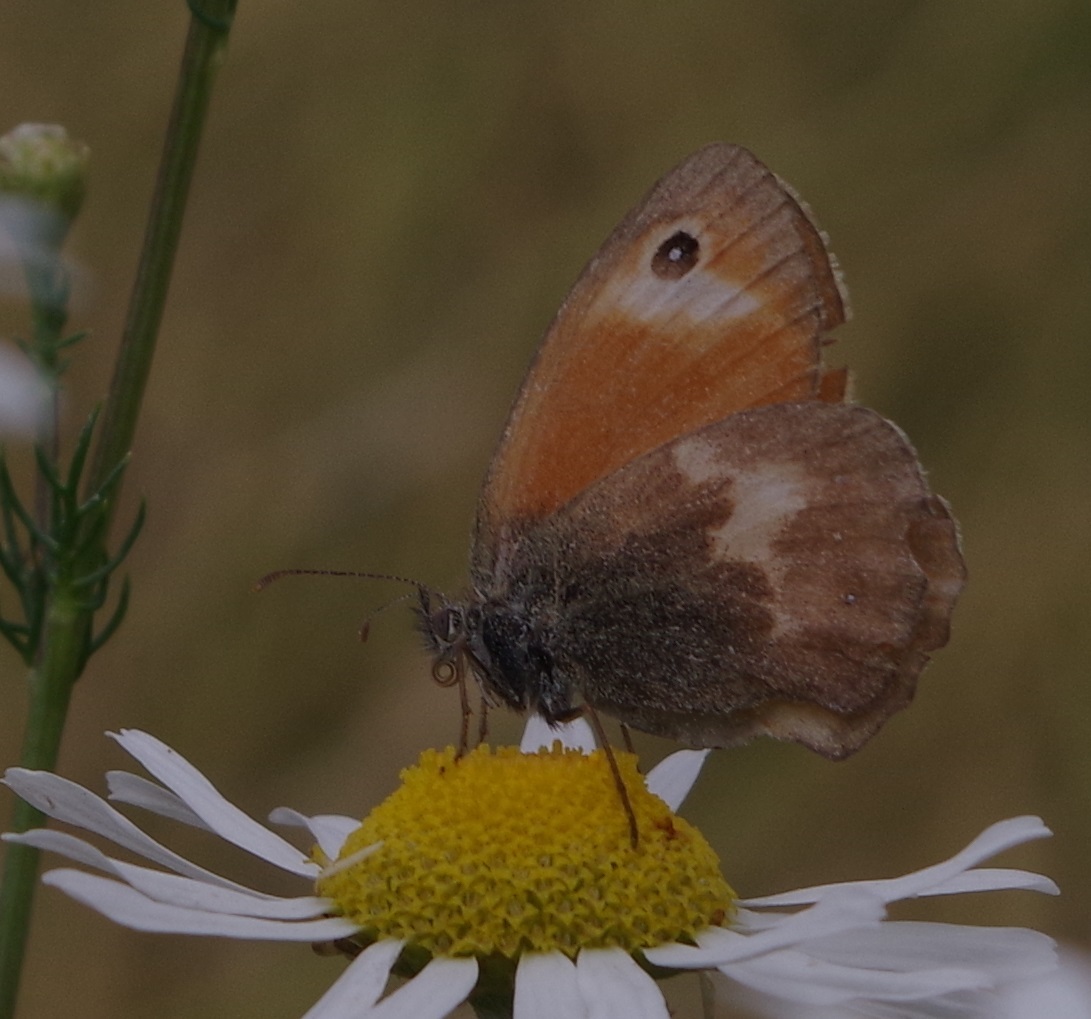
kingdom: Animalia
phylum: Arthropoda
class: Insecta
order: Lepidoptera
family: Nymphalidae
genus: Coenonympha
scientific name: Coenonympha pamphilus
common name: Small heath
